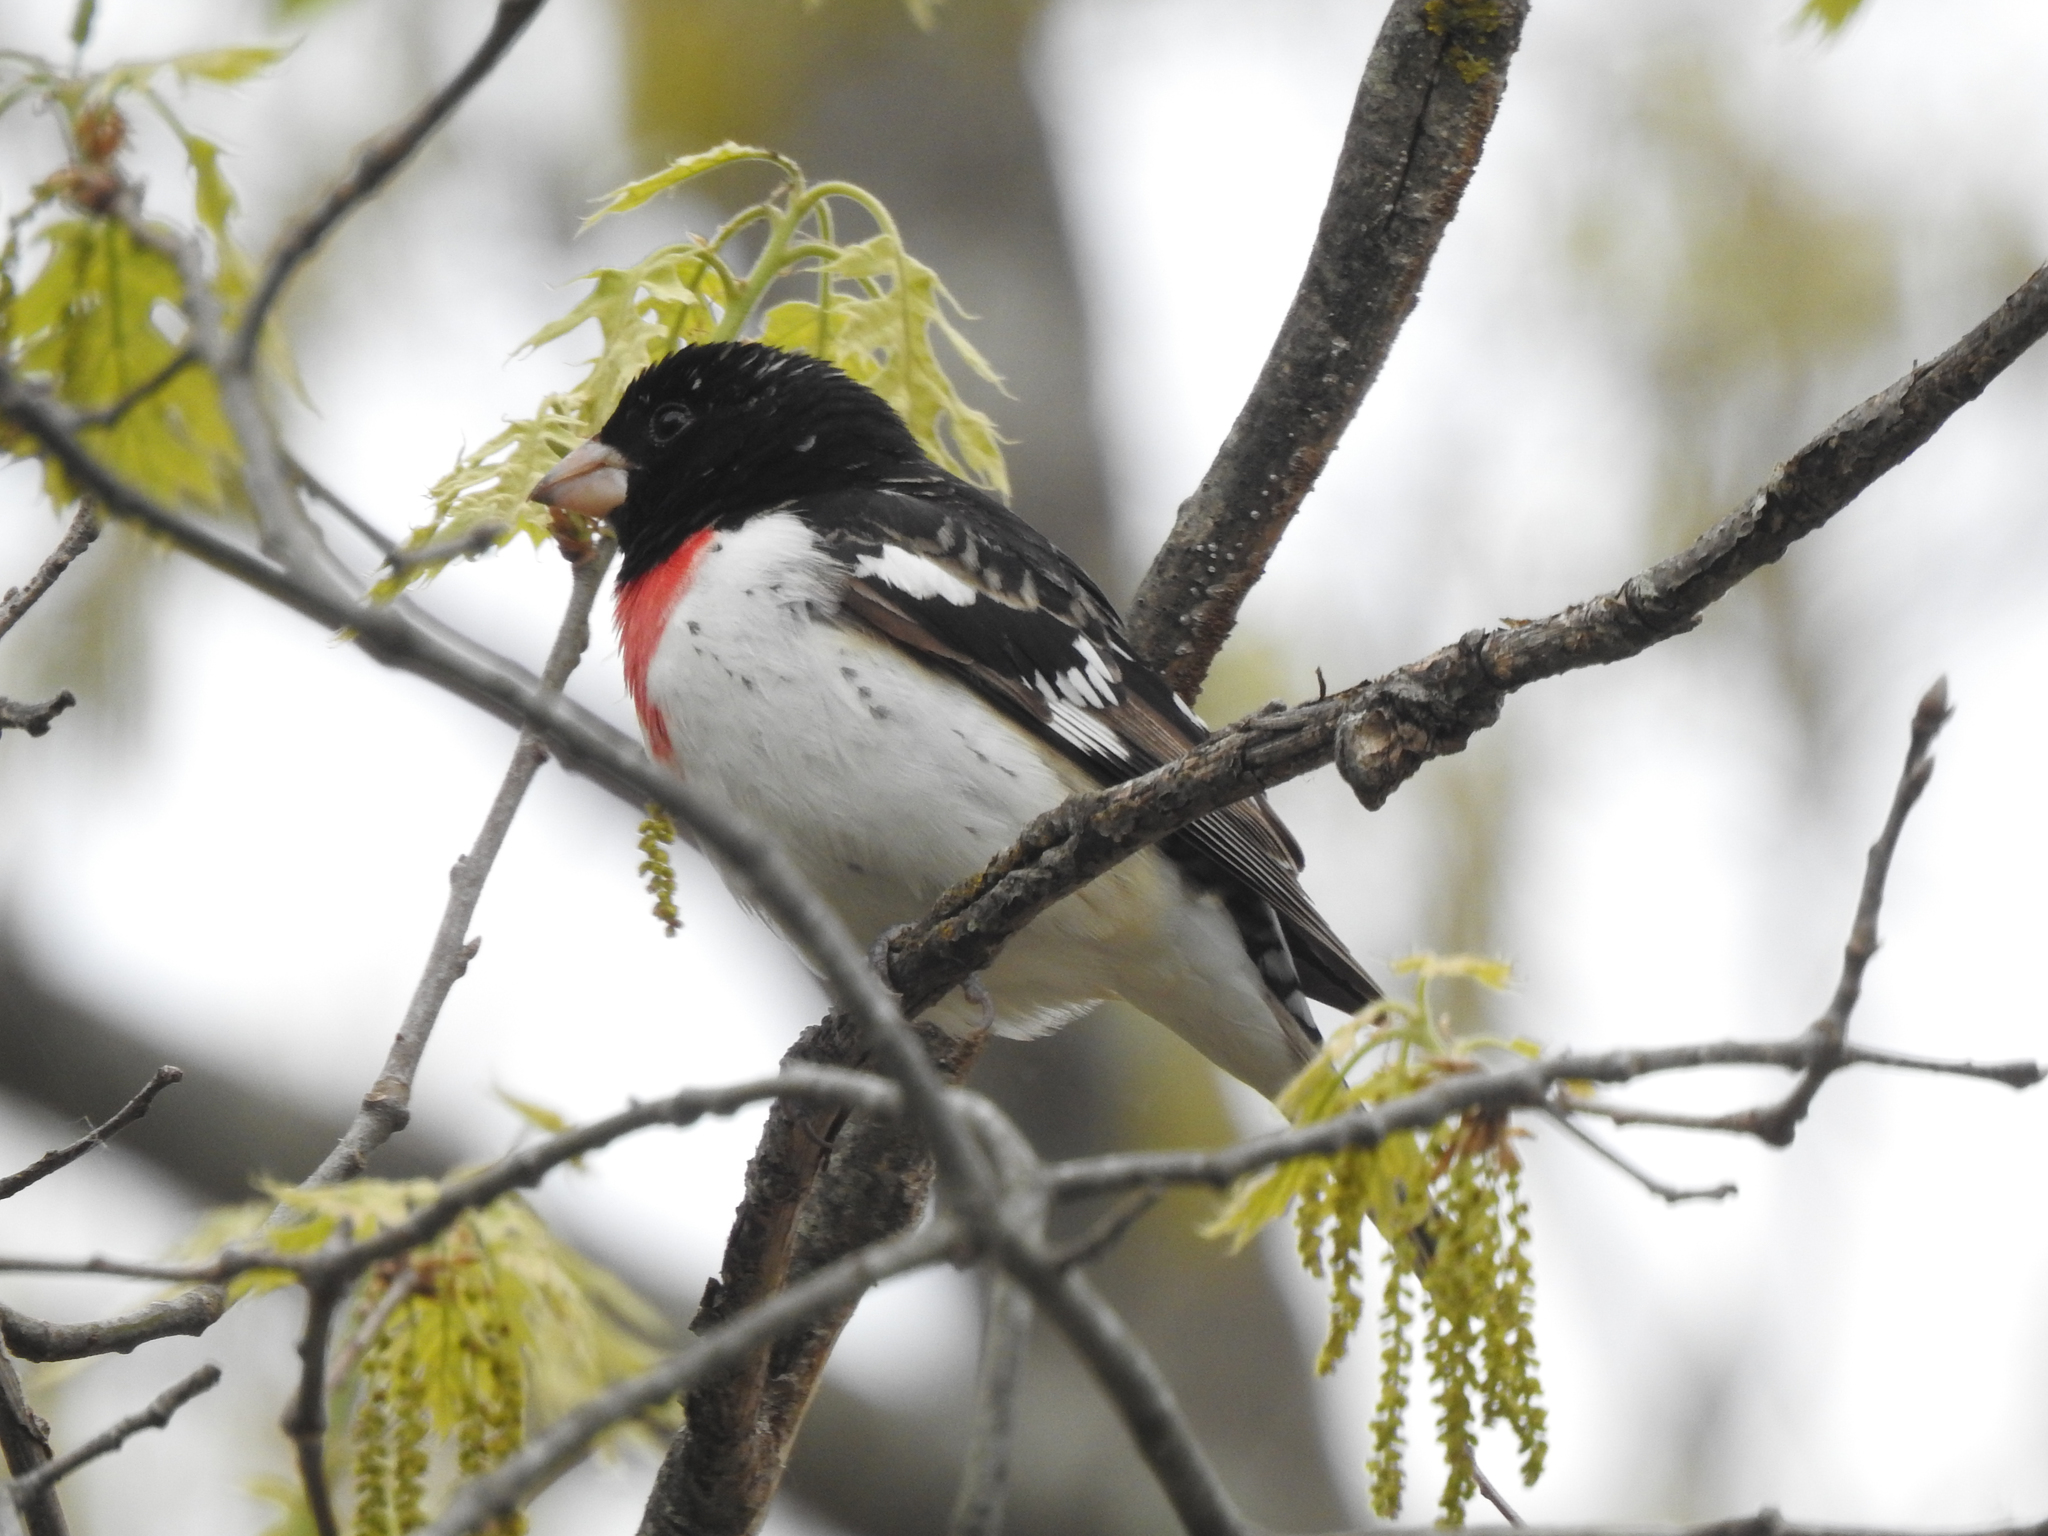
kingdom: Animalia
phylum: Chordata
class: Aves
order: Passeriformes
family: Cardinalidae
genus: Pheucticus
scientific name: Pheucticus ludovicianus
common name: Rose-breasted grosbeak
